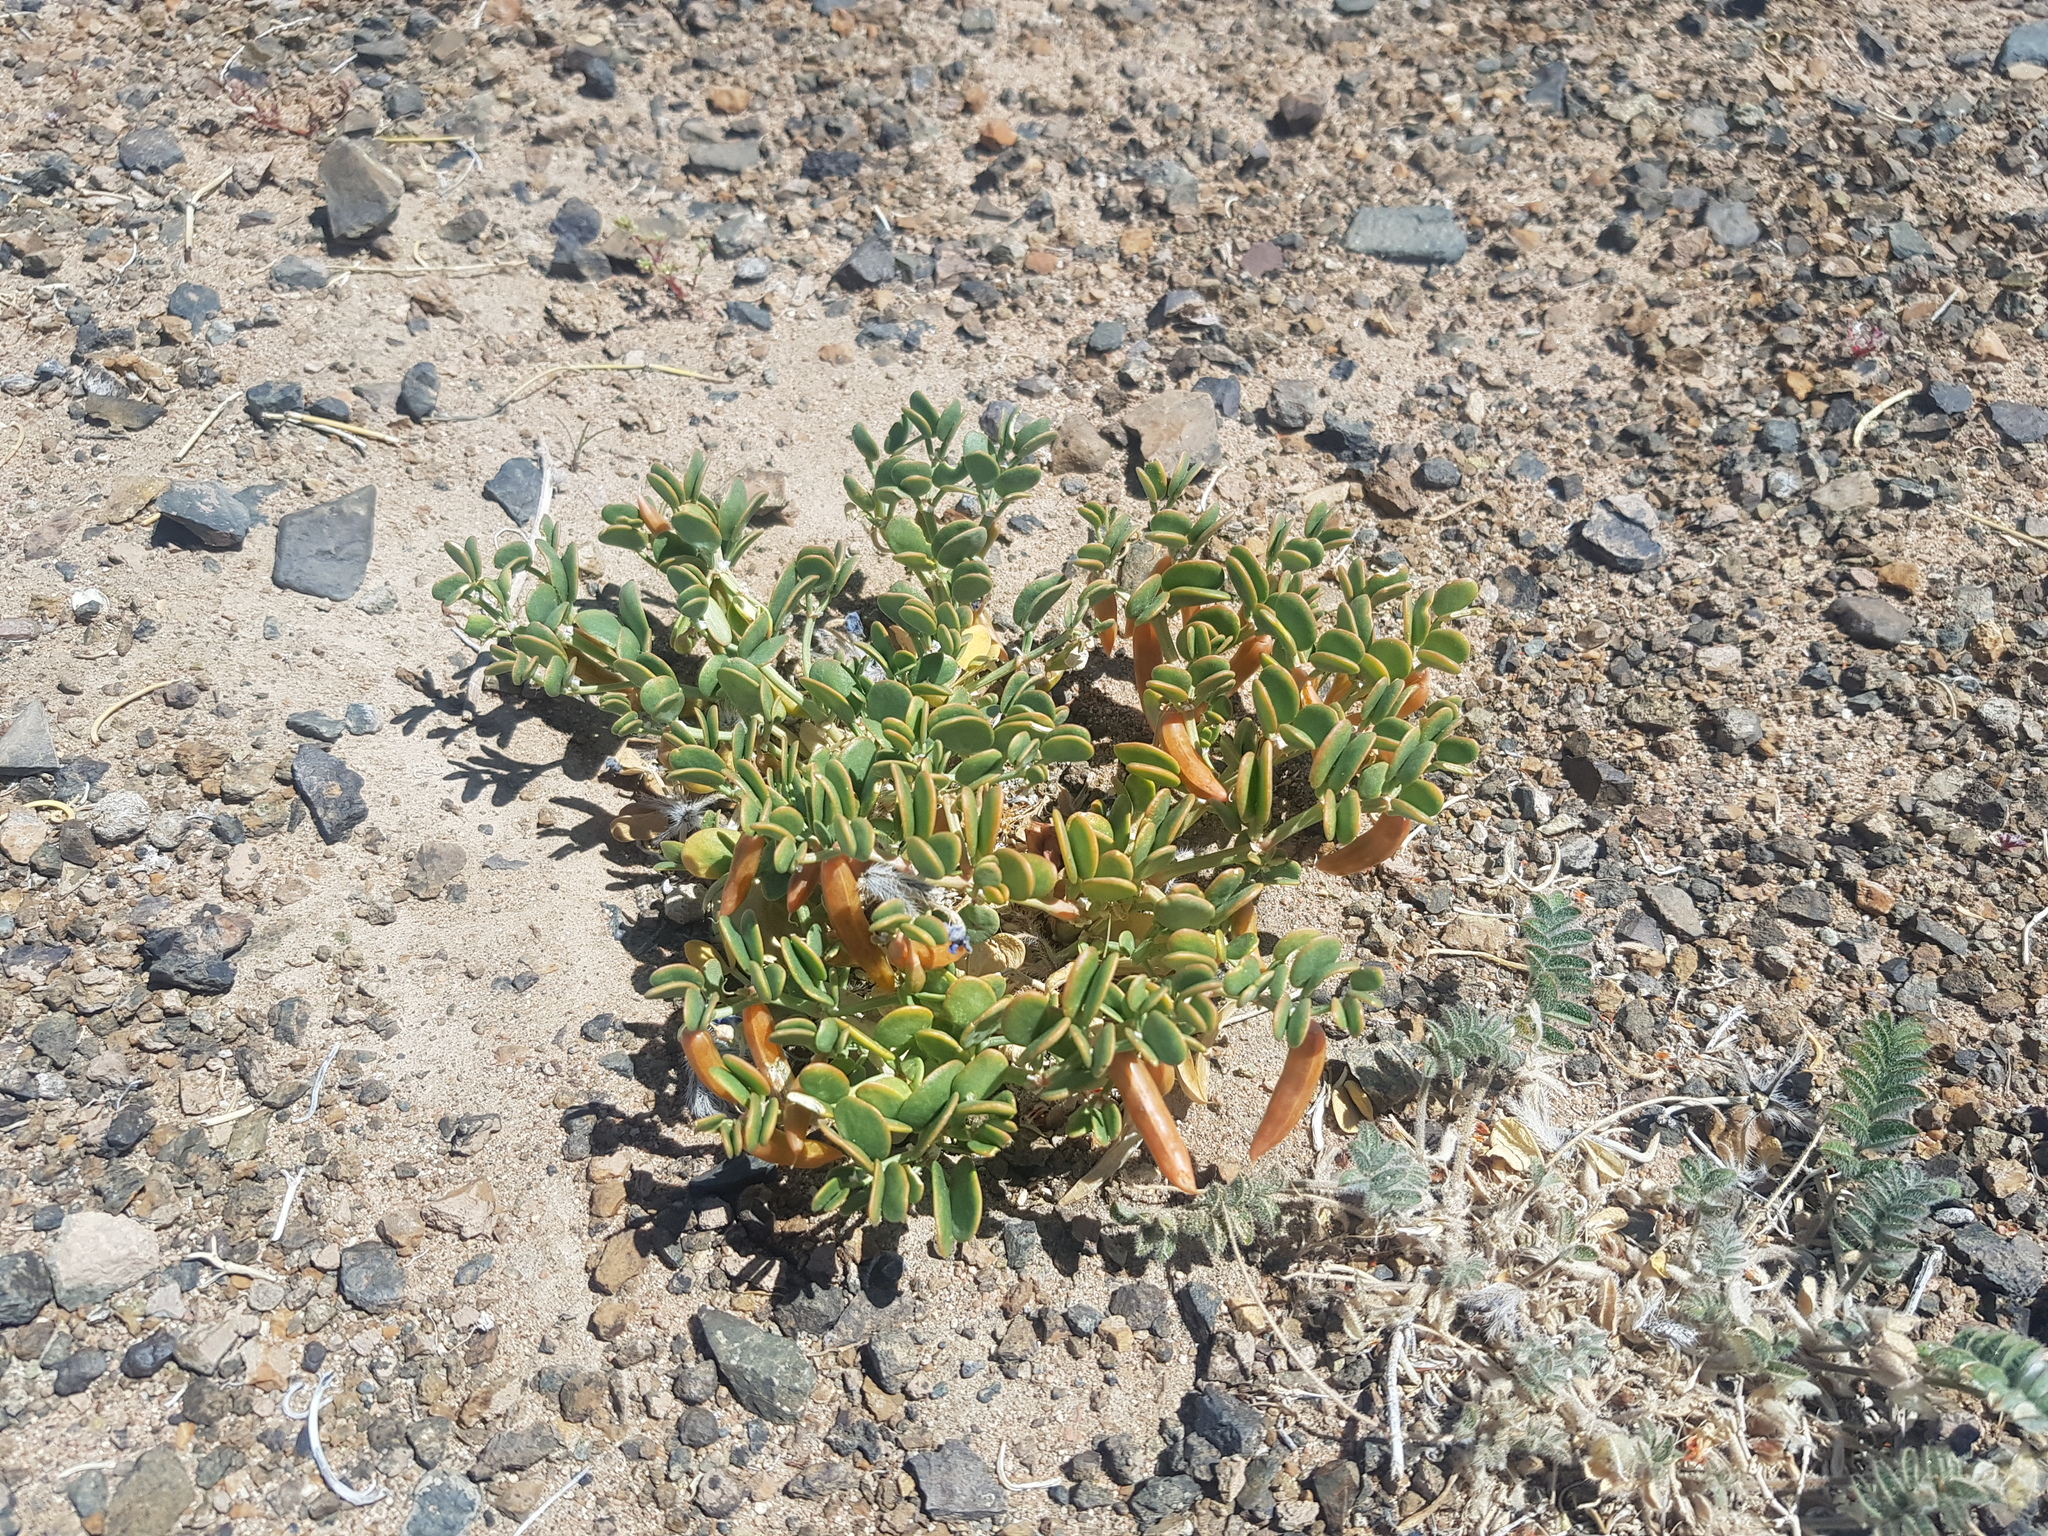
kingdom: Plantae
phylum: Tracheophyta
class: Magnoliopsida
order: Zygophyllales
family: Zygophyllaceae
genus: Zygophyllum
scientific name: Zygophyllum rosowii
